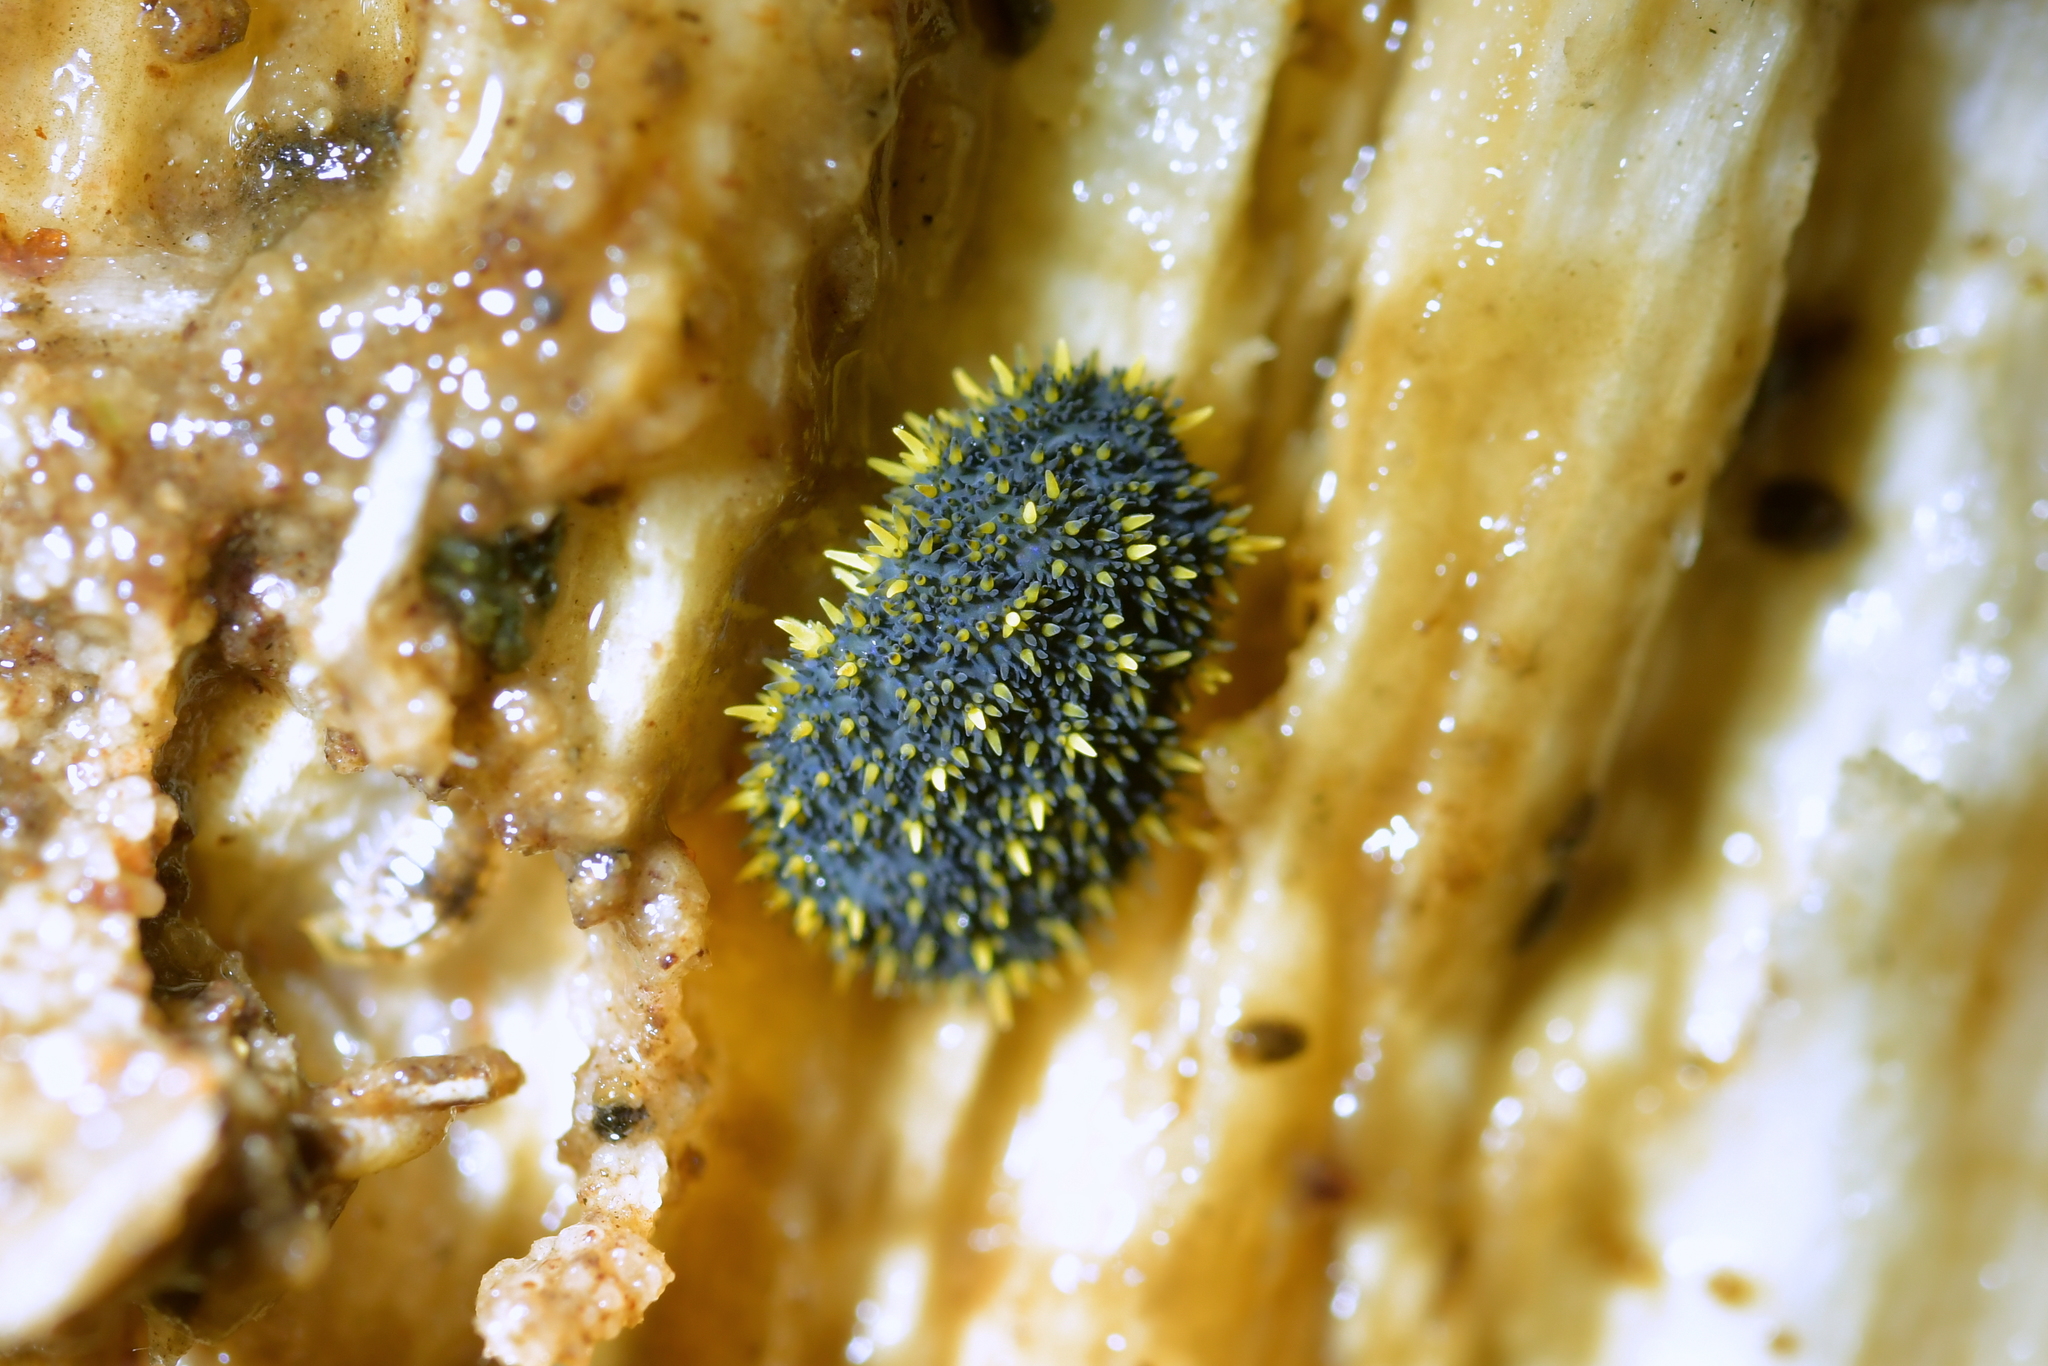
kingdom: Animalia
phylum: Arthropoda
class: Collembola
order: Poduromorpha
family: Neanuridae
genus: Holacanthella
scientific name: Holacanthella duospinosa
